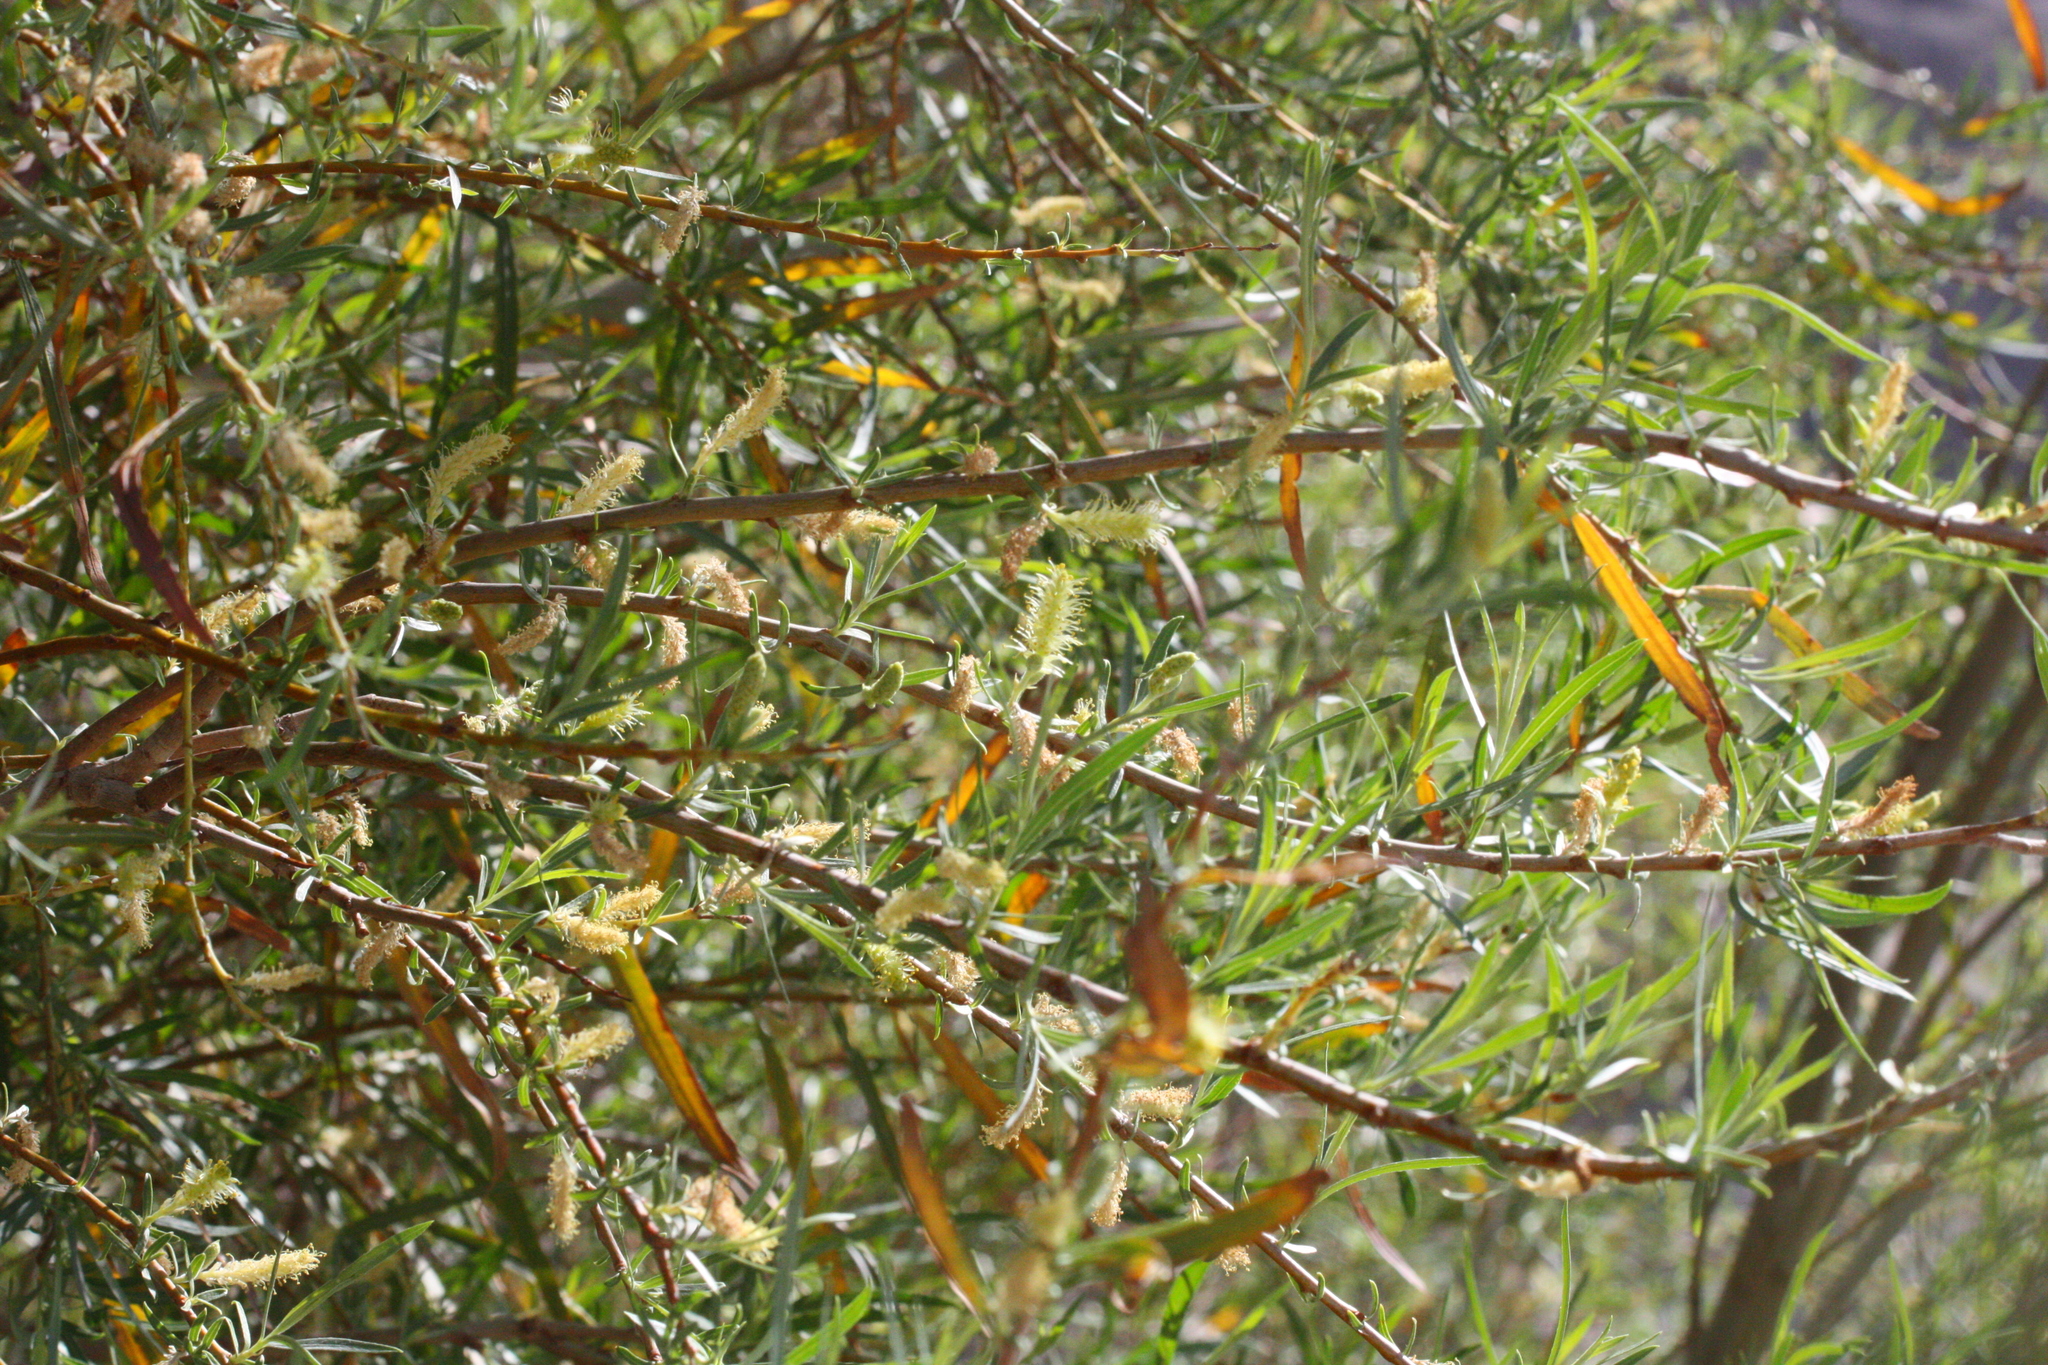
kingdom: Plantae
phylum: Tracheophyta
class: Magnoliopsida
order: Malpighiales
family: Salicaceae
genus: Salix
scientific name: Salix exigua
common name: Coyote willow
